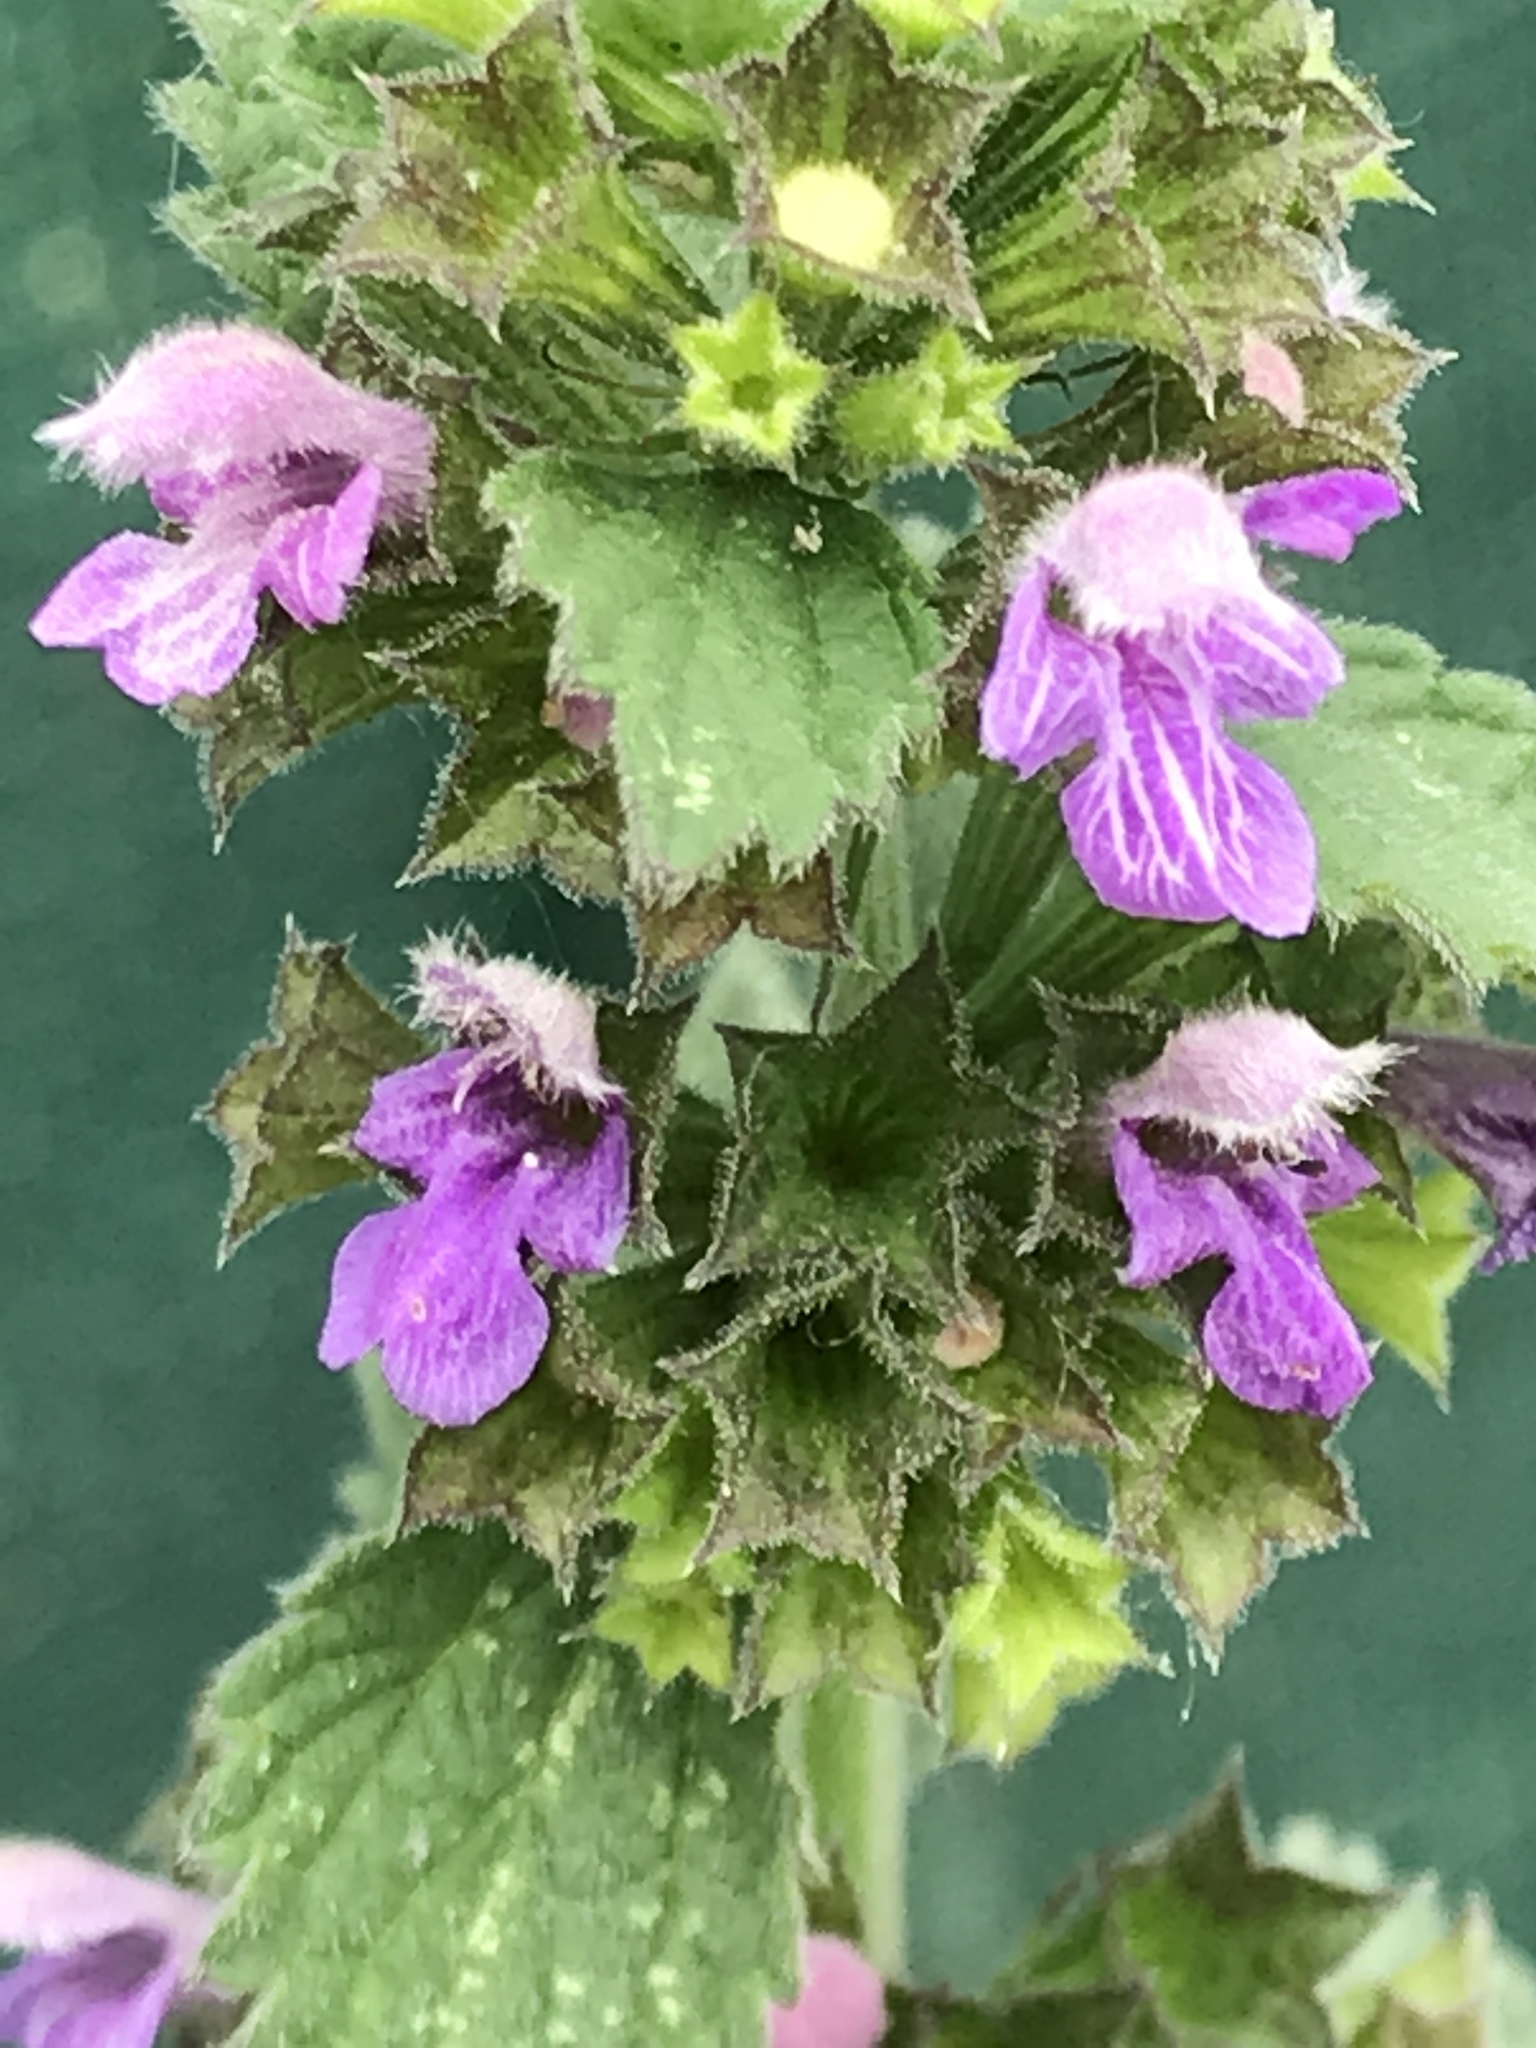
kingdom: Plantae
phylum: Tracheophyta
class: Magnoliopsida
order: Lamiales
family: Lamiaceae
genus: Ballota
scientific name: Ballota nigra
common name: Black horehound
